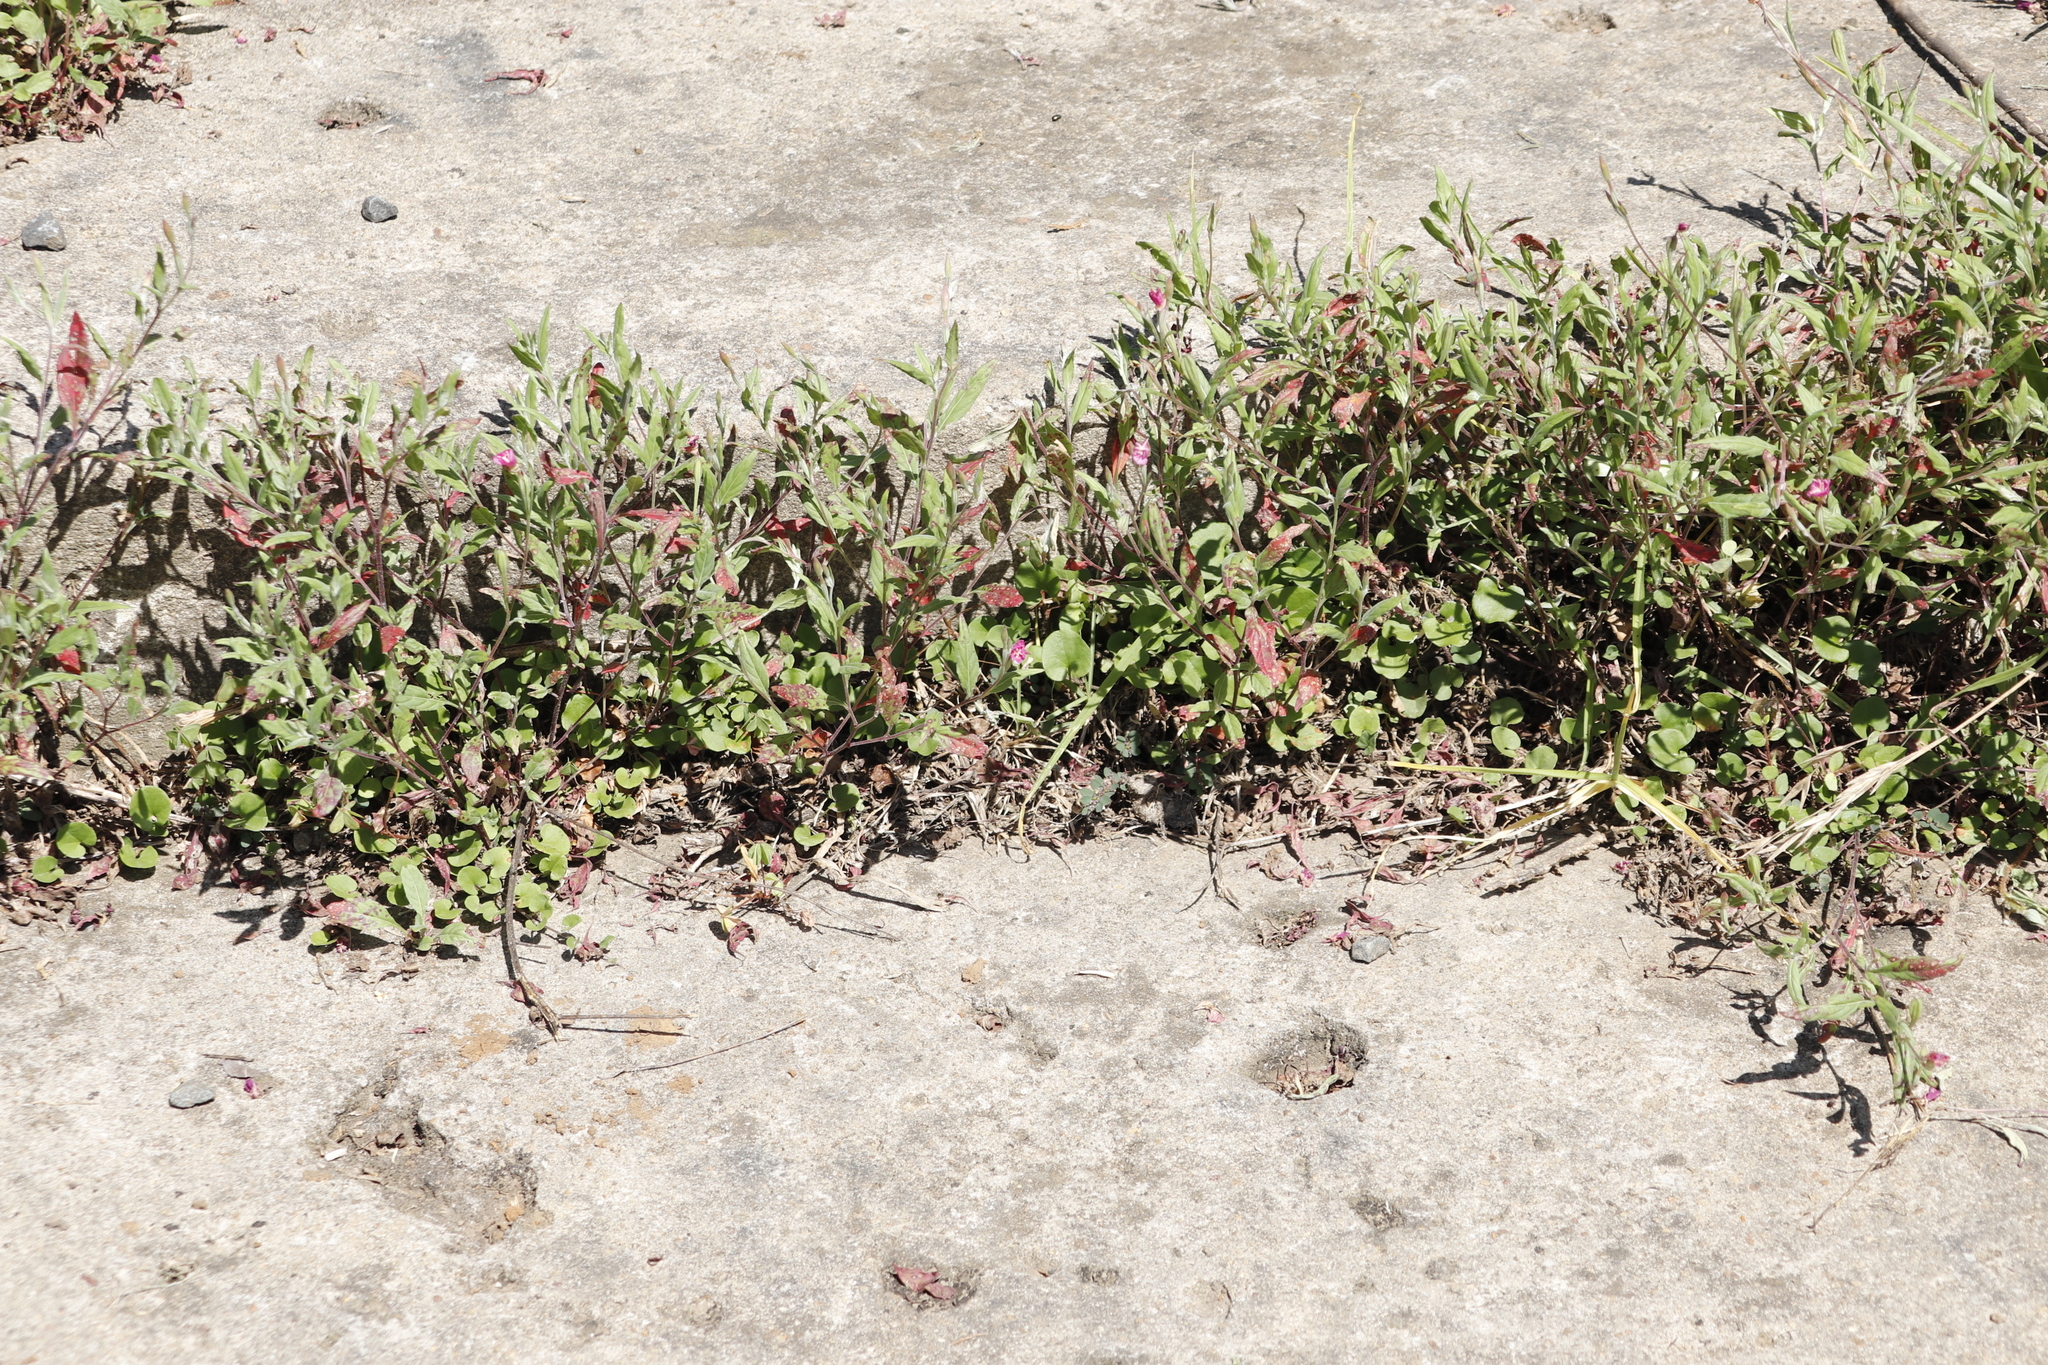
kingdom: Plantae
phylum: Tracheophyta
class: Magnoliopsida
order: Myrtales
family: Onagraceae
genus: Oenothera
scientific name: Oenothera rosea
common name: Rosy evening-primrose
